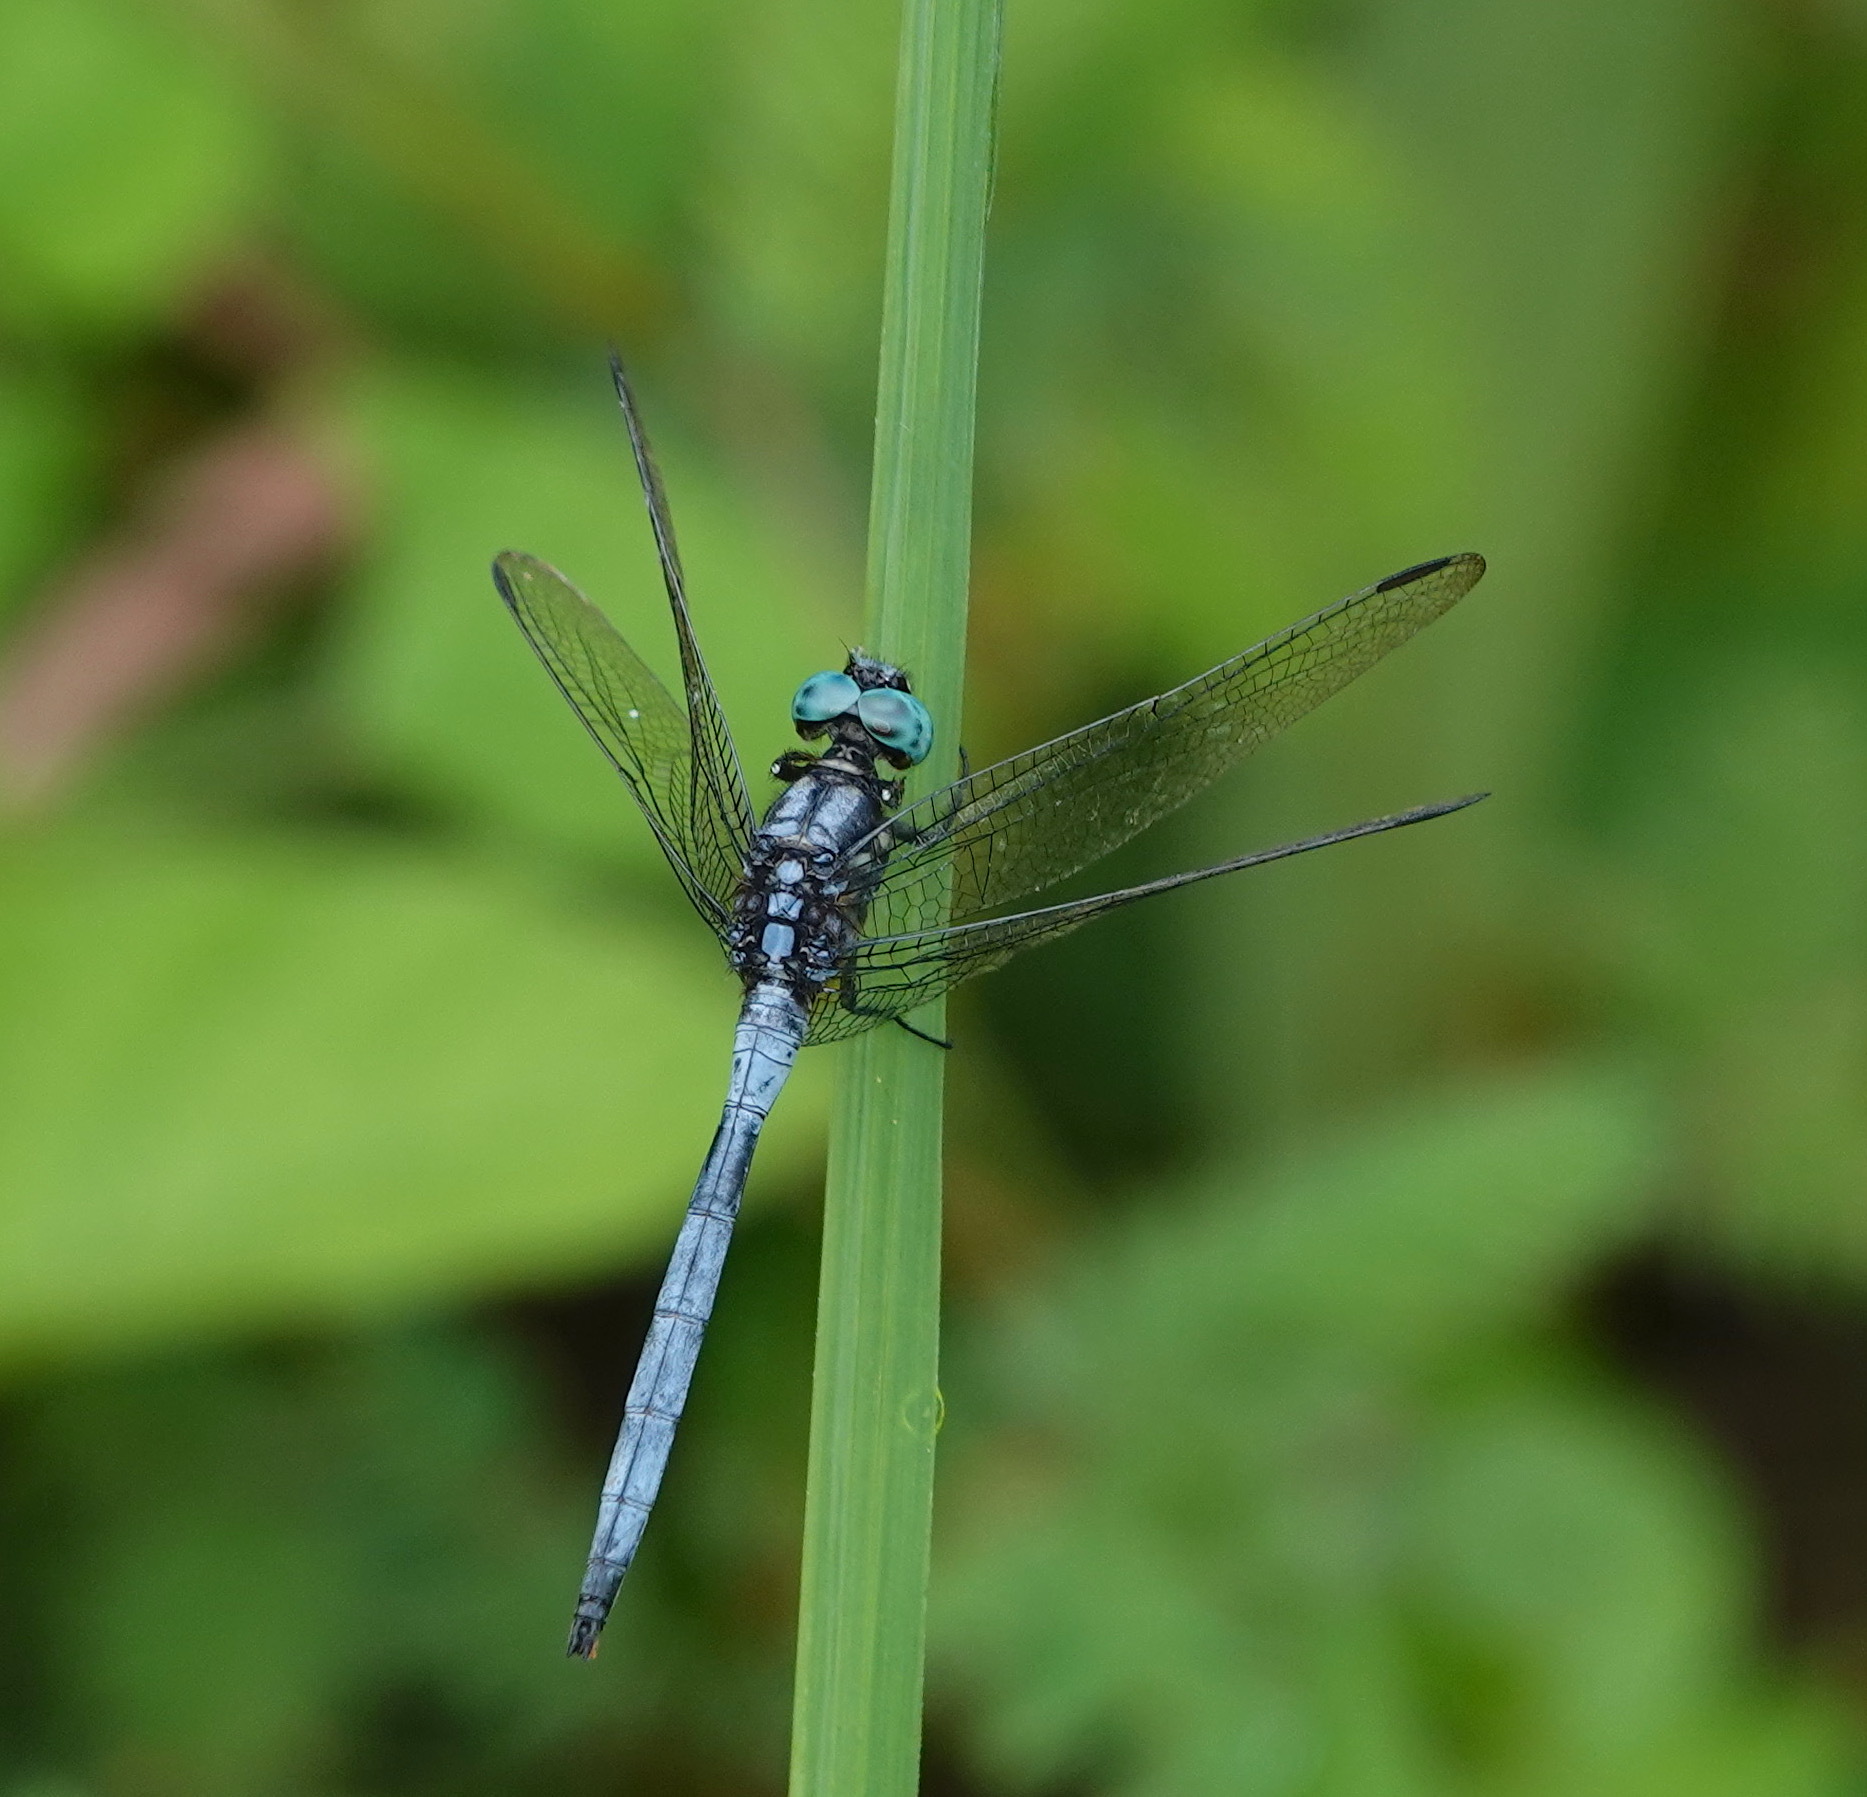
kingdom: Animalia
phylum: Arthropoda
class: Insecta
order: Odonata
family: Libellulidae
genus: Orthetrum
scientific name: Orthetrum luzonicum
